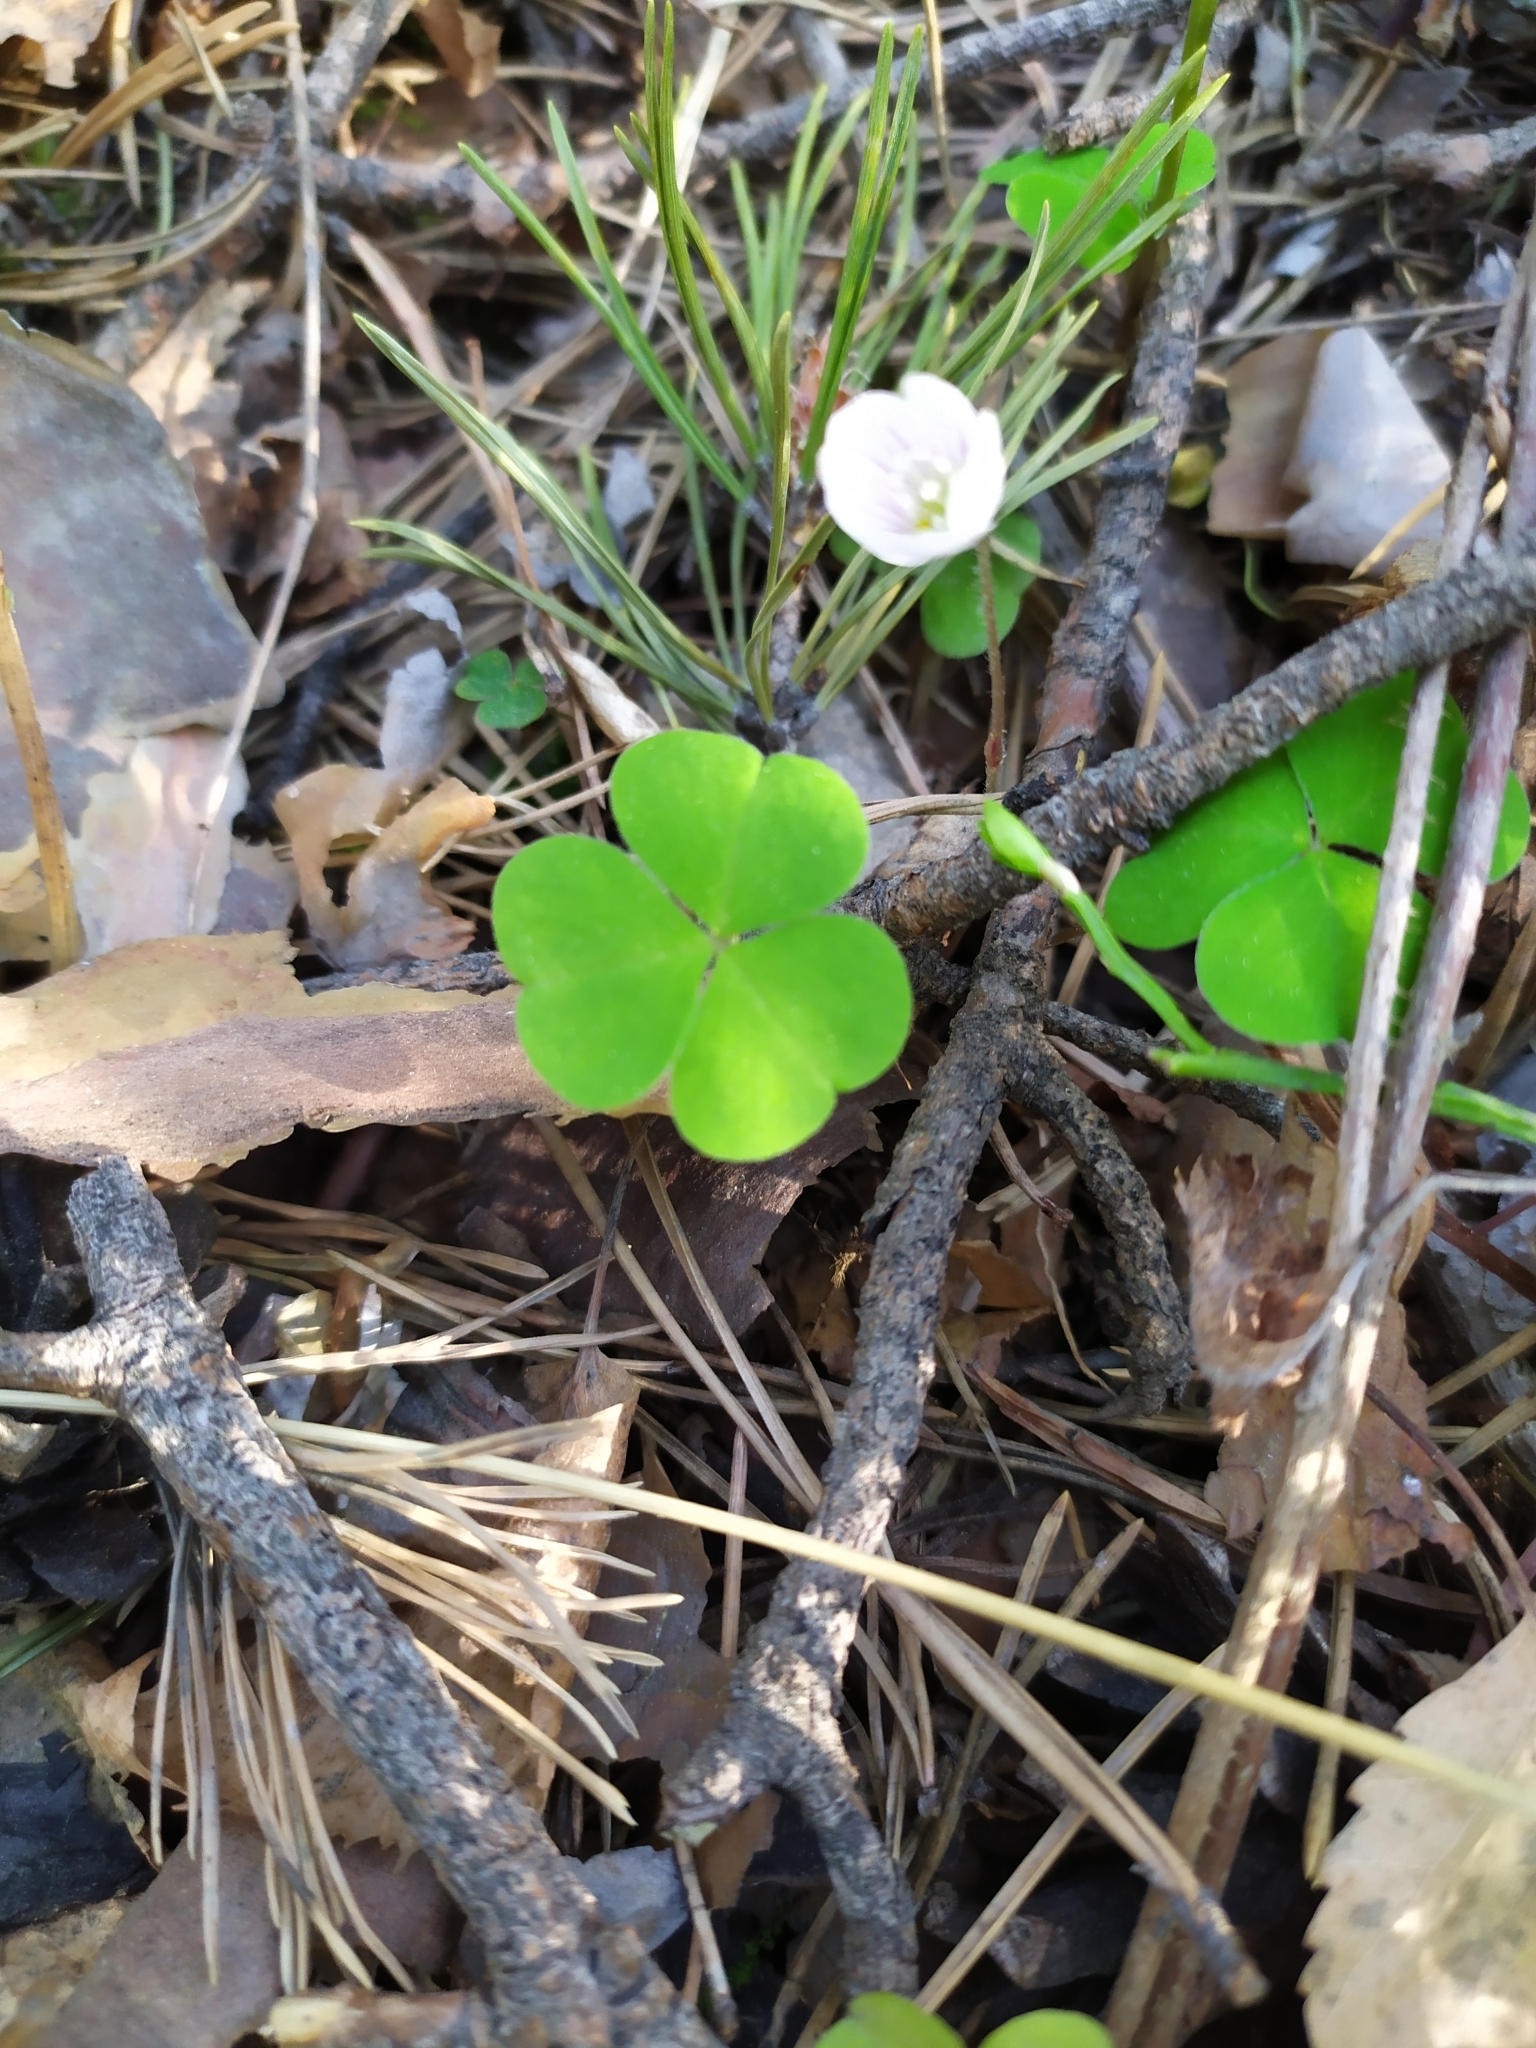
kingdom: Plantae
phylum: Tracheophyta
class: Magnoliopsida
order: Oxalidales
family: Oxalidaceae
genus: Oxalis
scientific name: Oxalis acetosella
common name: Wood-sorrel
